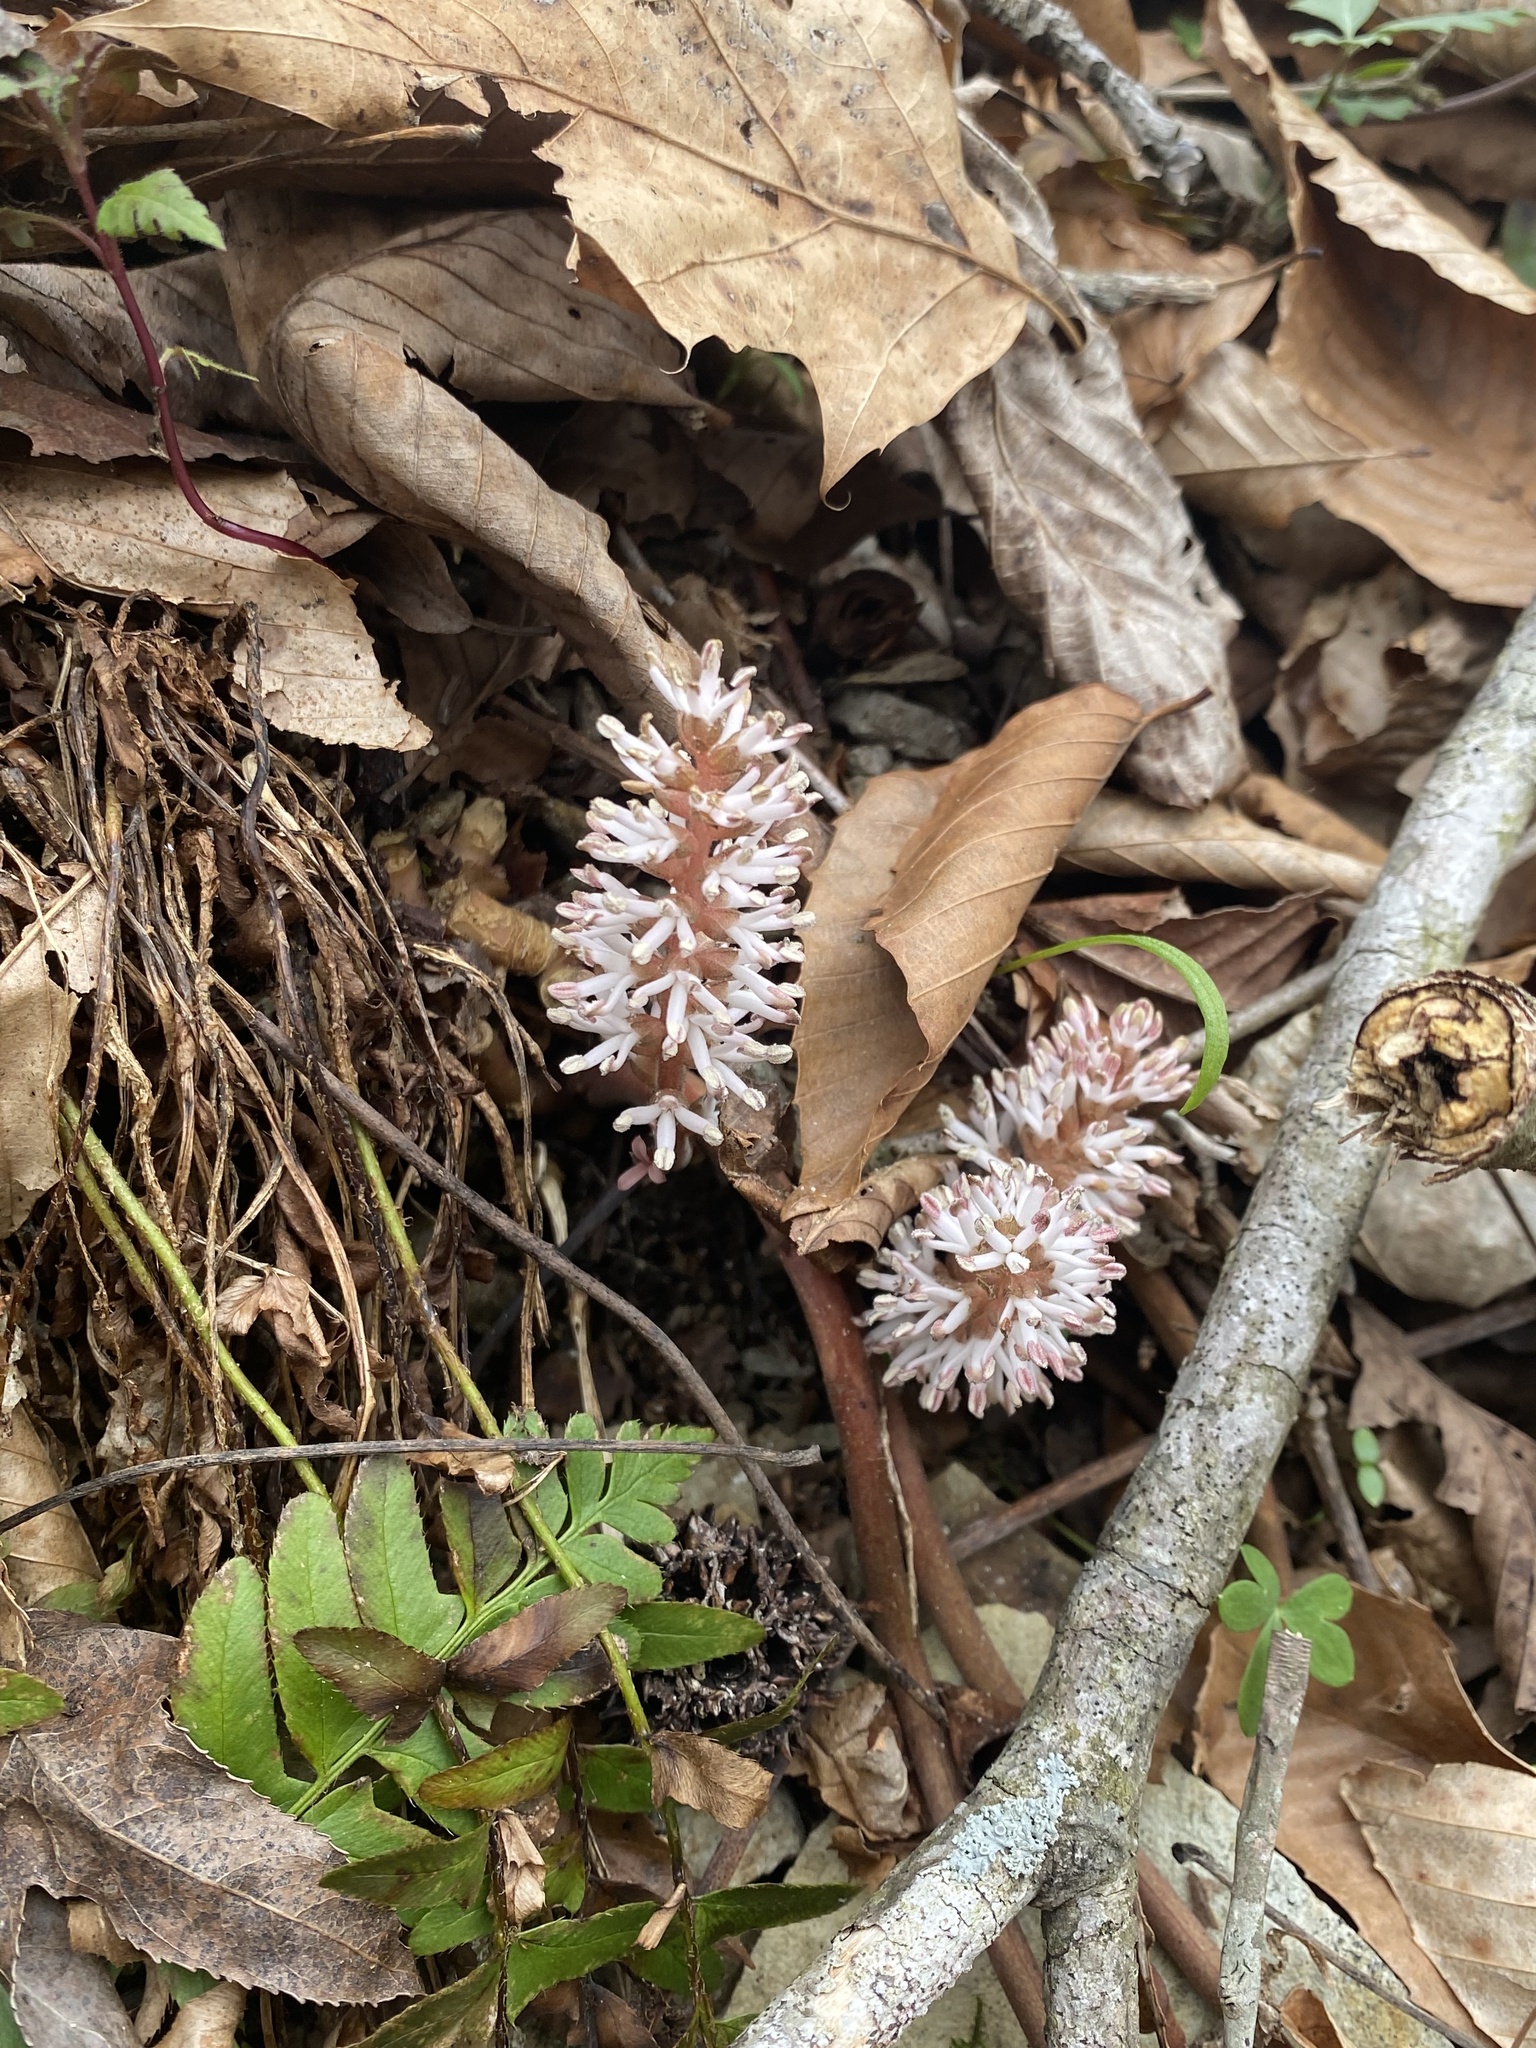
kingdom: Plantae
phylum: Tracheophyta
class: Magnoliopsida
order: Buxales
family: Buxaceae
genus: Pachysandra
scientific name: Pachysandra procumbens
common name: Mountain-spurge
